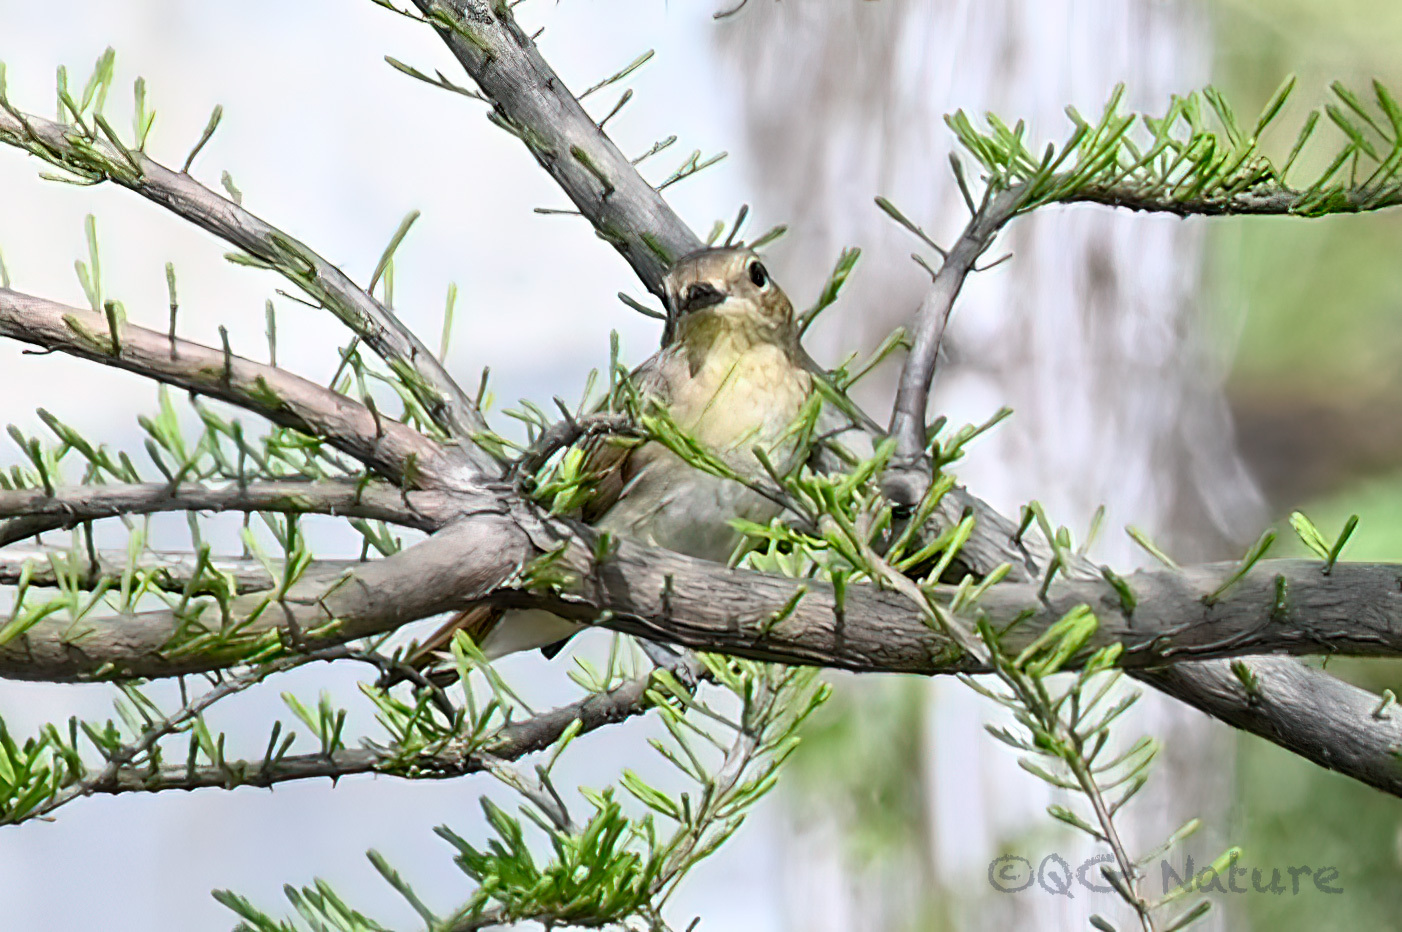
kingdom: Animalia
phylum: Chordata
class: Aves
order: Passeriformes
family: Muscicapidae
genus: Ficedula
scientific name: Ficedula narcissina
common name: Narcissus flycatcher
